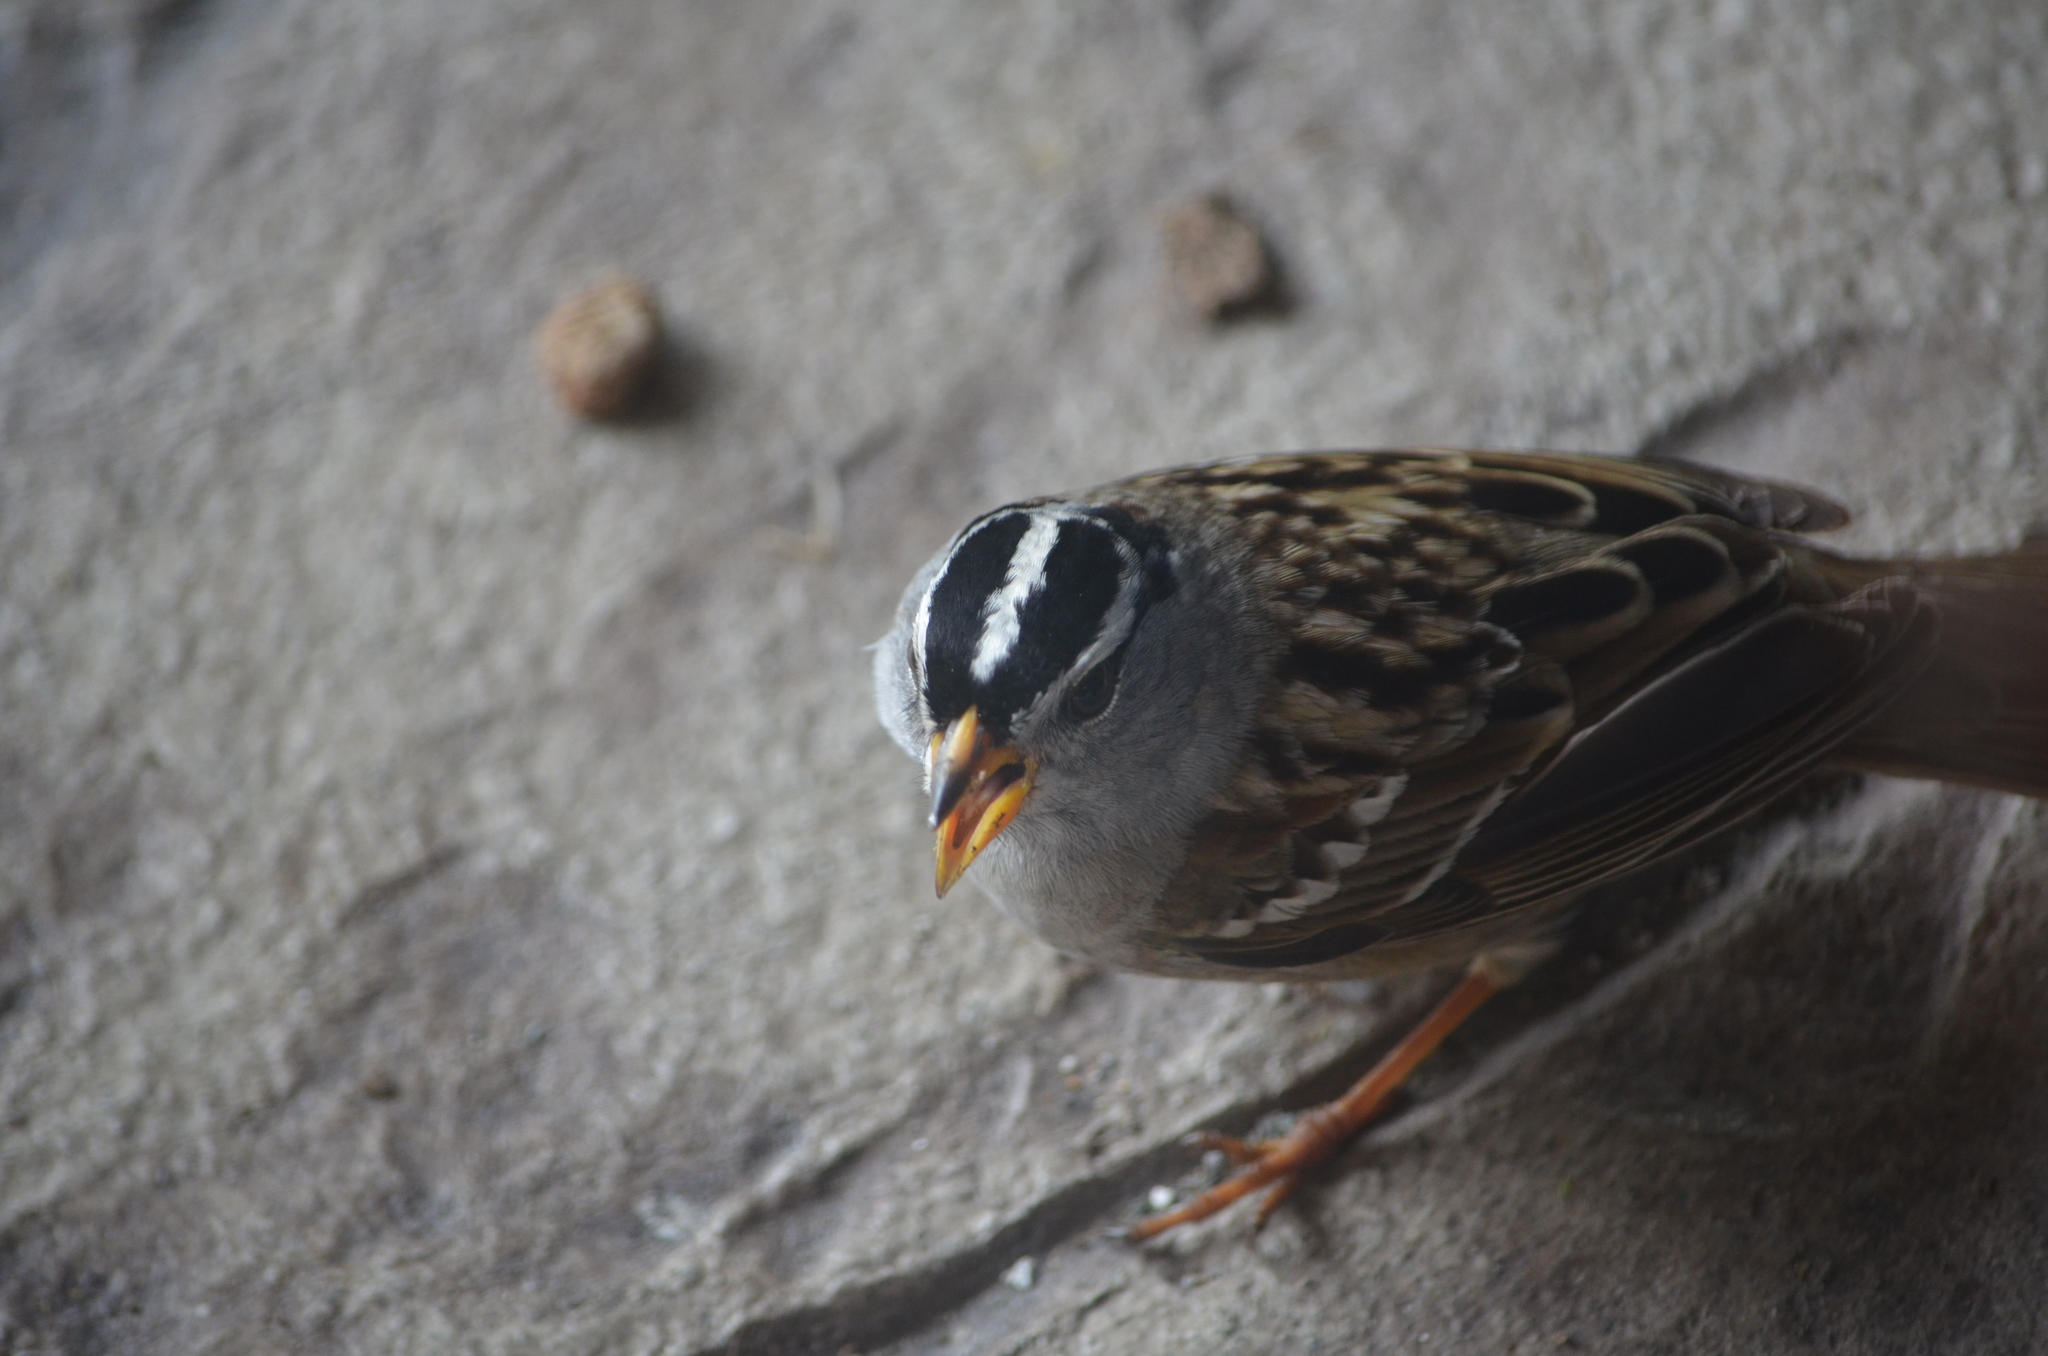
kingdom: Animalia
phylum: Chordata
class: Aves
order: Passeriformes
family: Passerellidae
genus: Zonotrichia
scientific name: Zonotrichia leucophrys
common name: White-crowned sparrow
